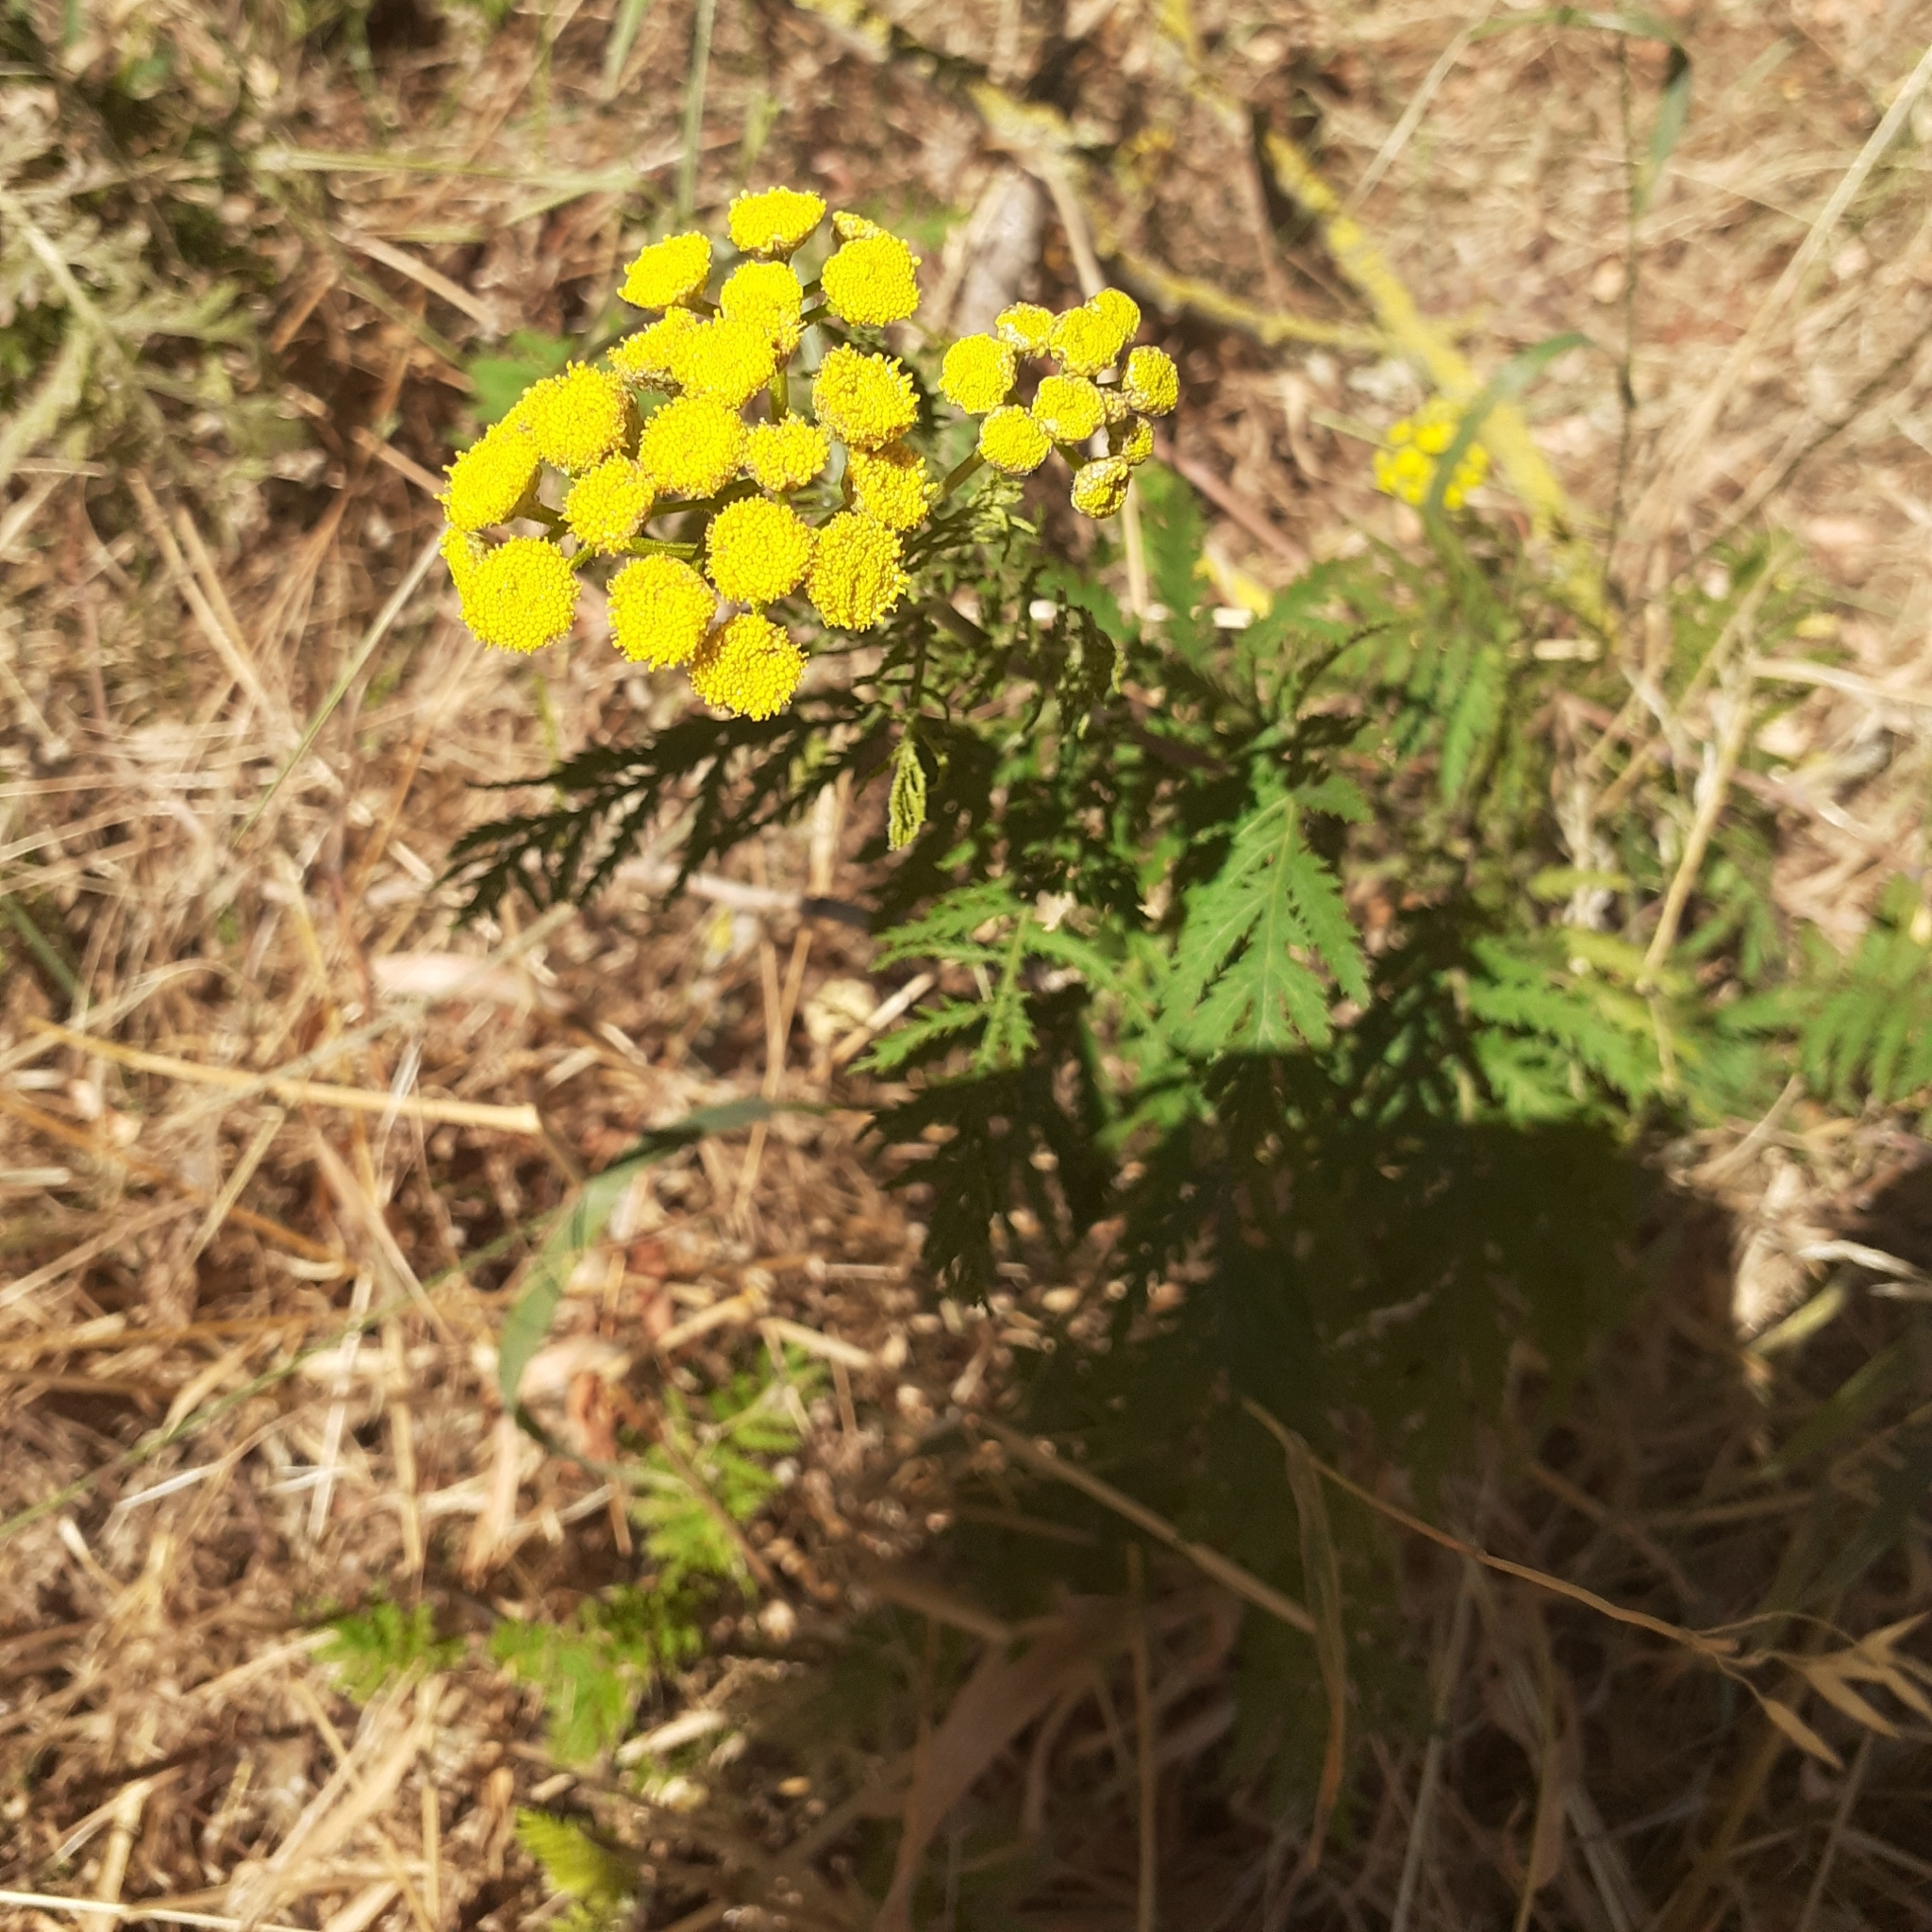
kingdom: Plantae
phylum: Tracheophyta
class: Magnoliopsida
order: Asterales
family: Asteraceae
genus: Tanacetum
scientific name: Tanacetum vulgare
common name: Common tansy
